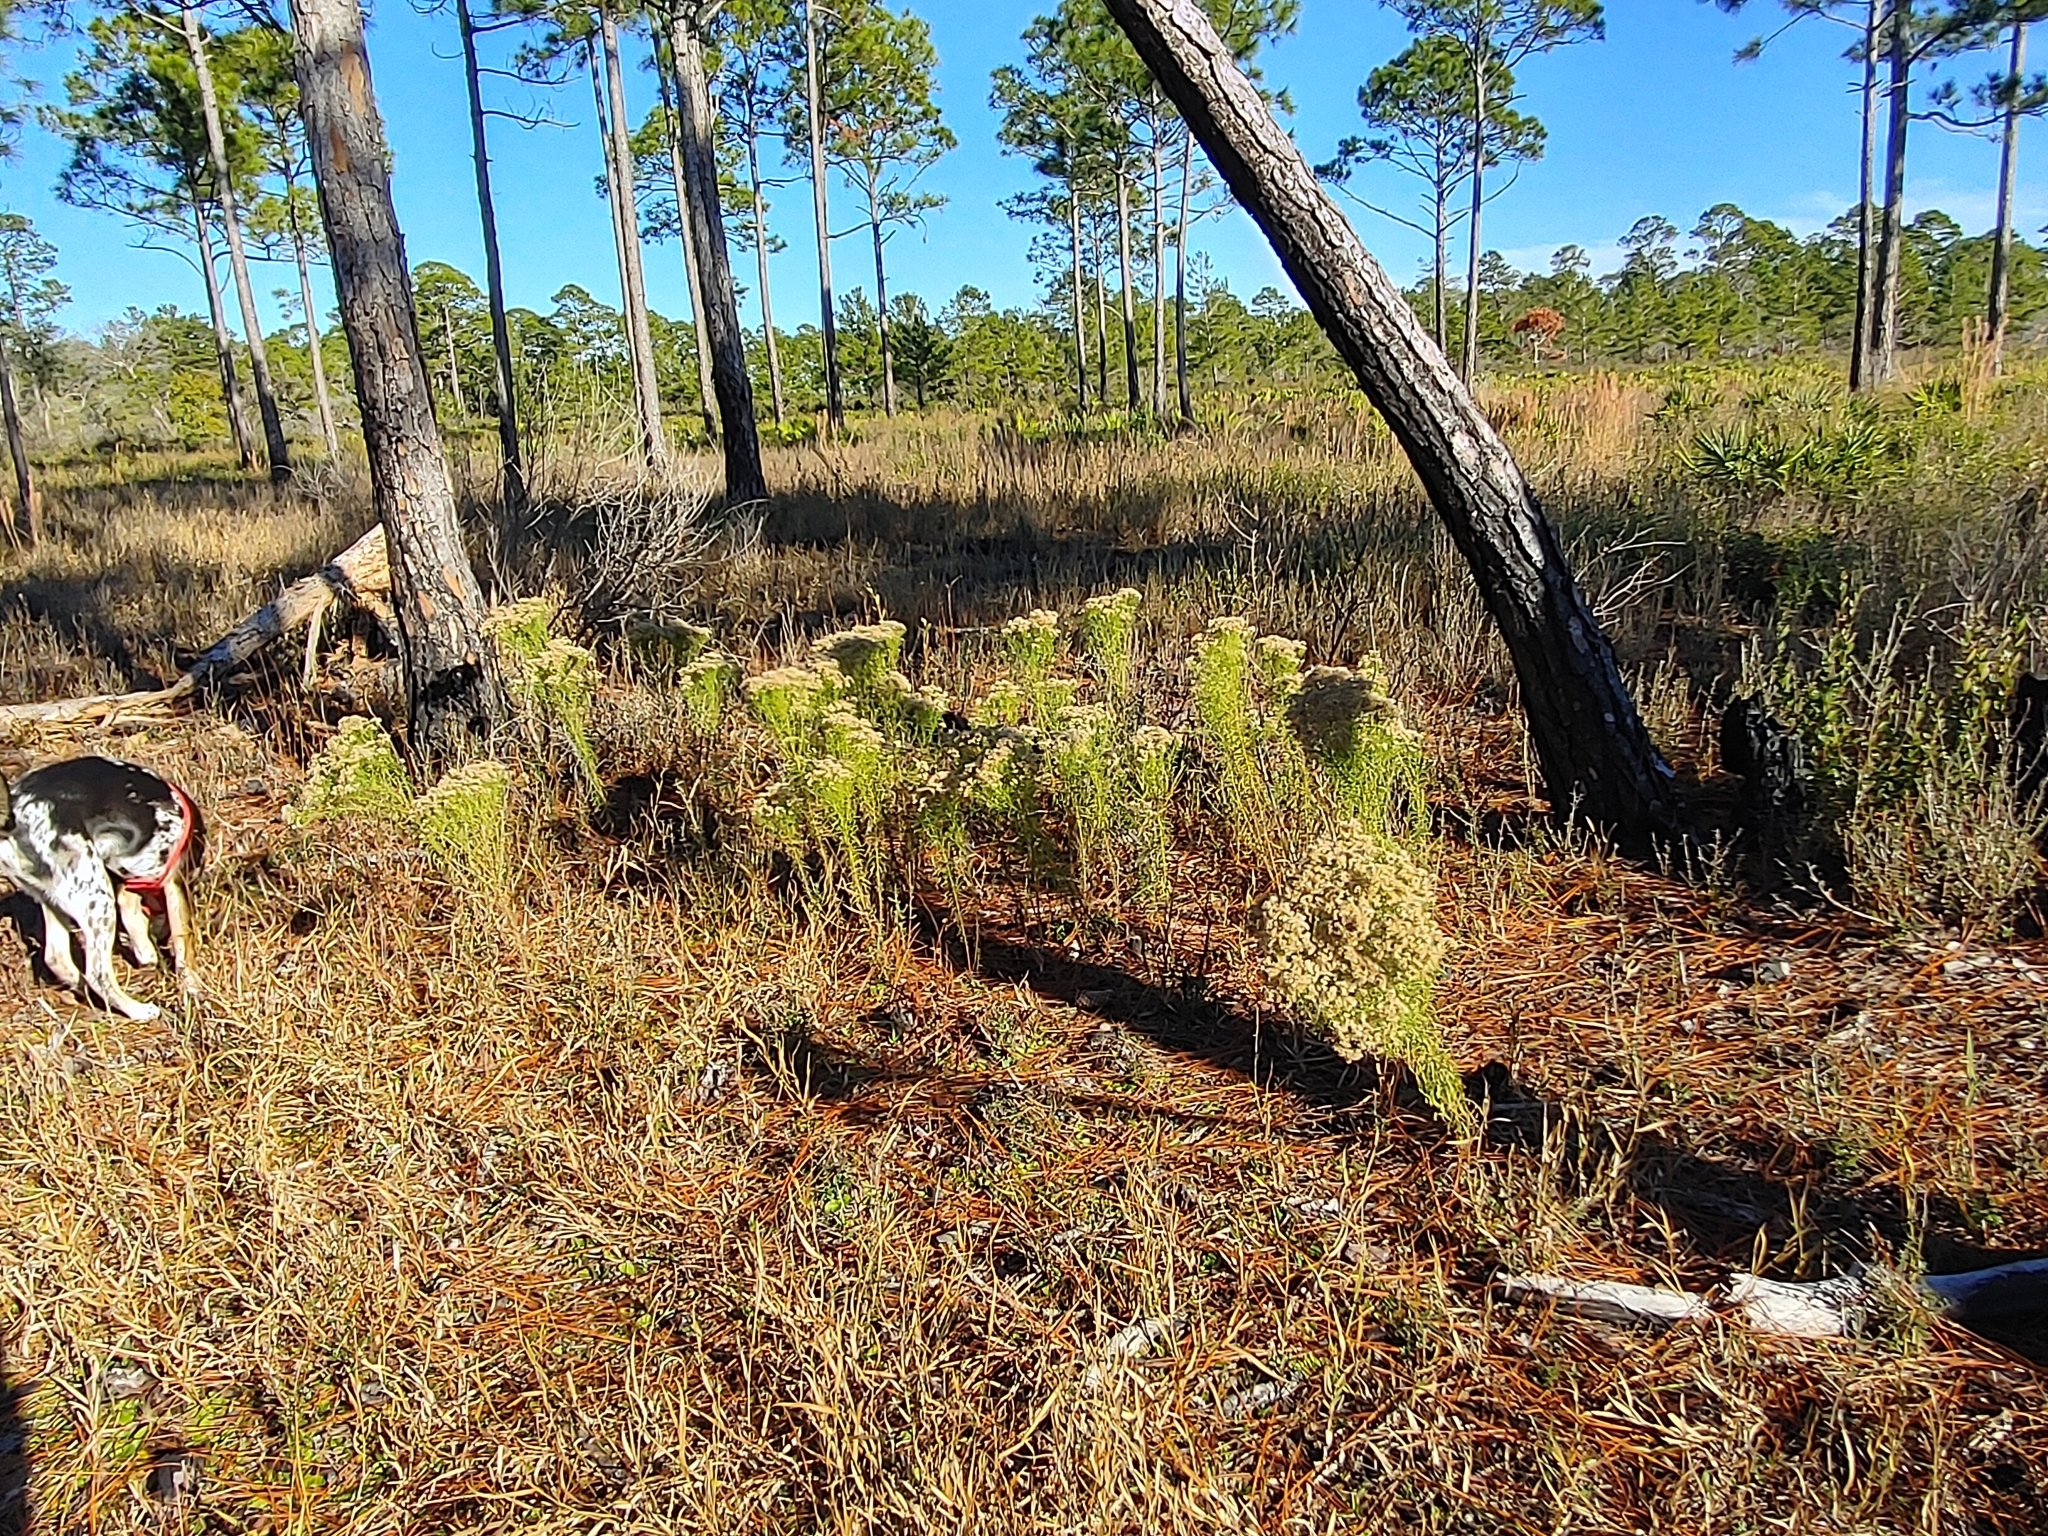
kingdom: Plantae
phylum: Tracheophyta
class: Magnoliopsida
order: Asterales
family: Asteraceae
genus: Euthamia
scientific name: Euthamia caroliniana
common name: Coastal plain goldentop
